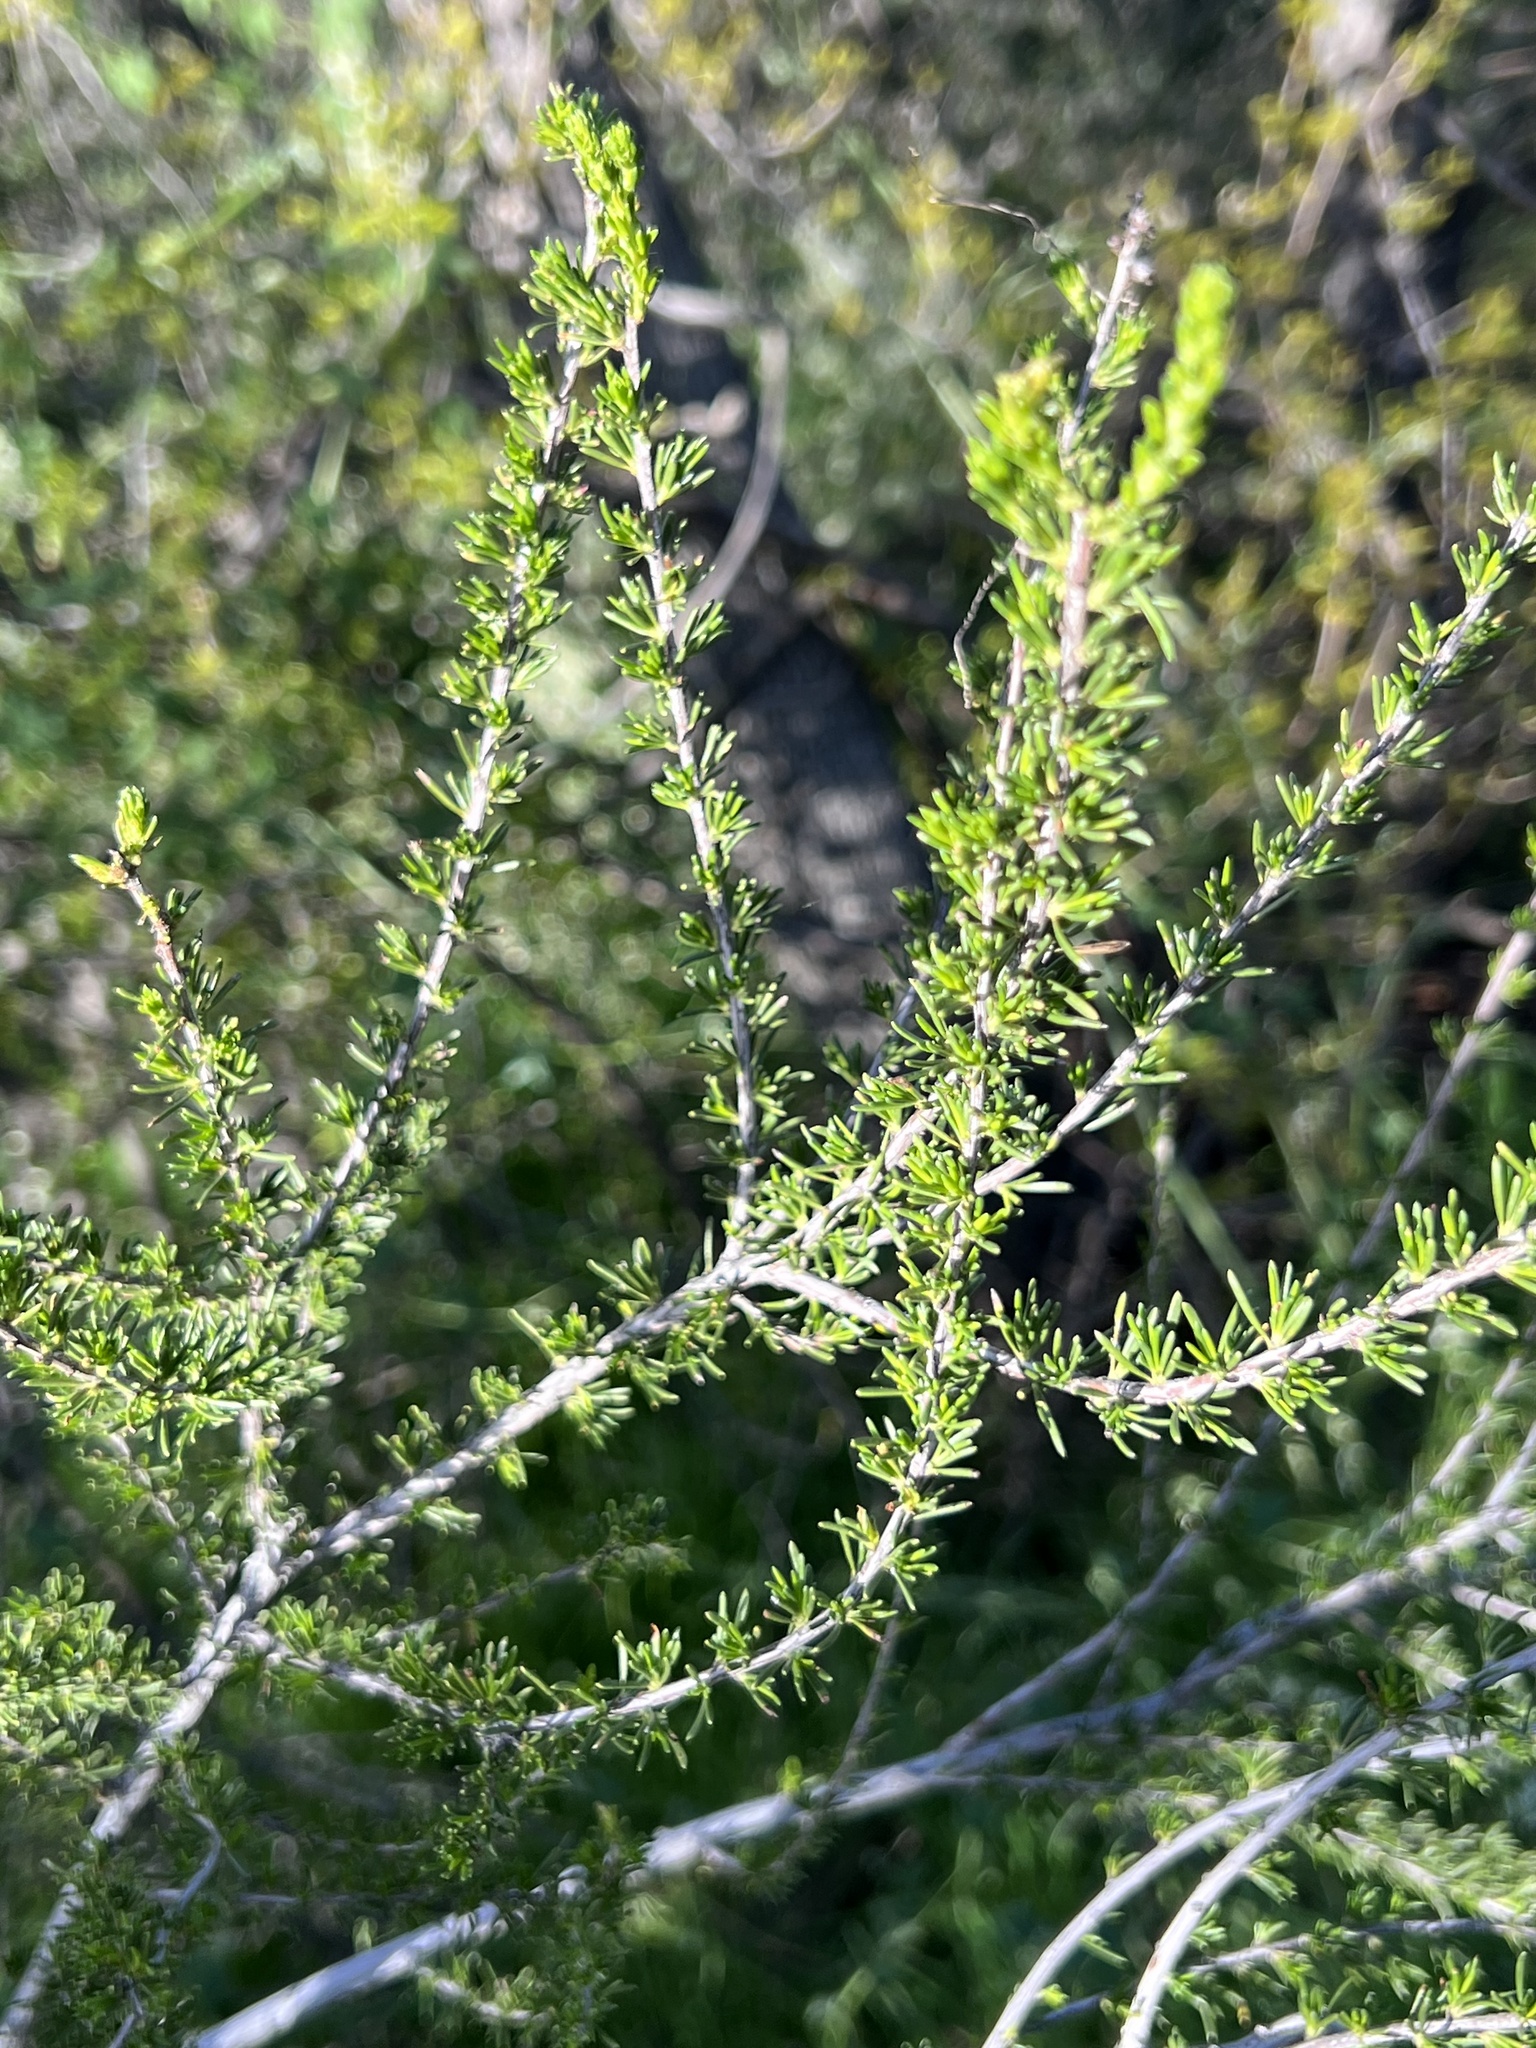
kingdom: Plantae
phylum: Tracheophyta
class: Magnoliopsida
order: Rosales
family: Rosaceae
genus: Adenostoma
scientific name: Adenostoma fasciculatum
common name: Chamise
